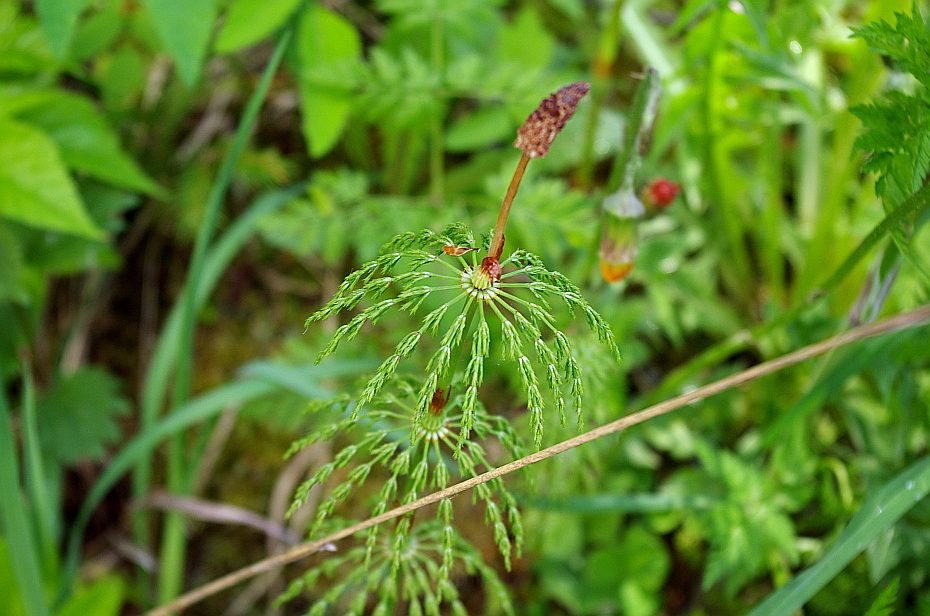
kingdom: Plantae
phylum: Tracheophyta
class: Polypodiopsida
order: Equisetales
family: Equisetaceae
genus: Equisetum
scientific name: Equisetum sylvaticum
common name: Wood horsetail
